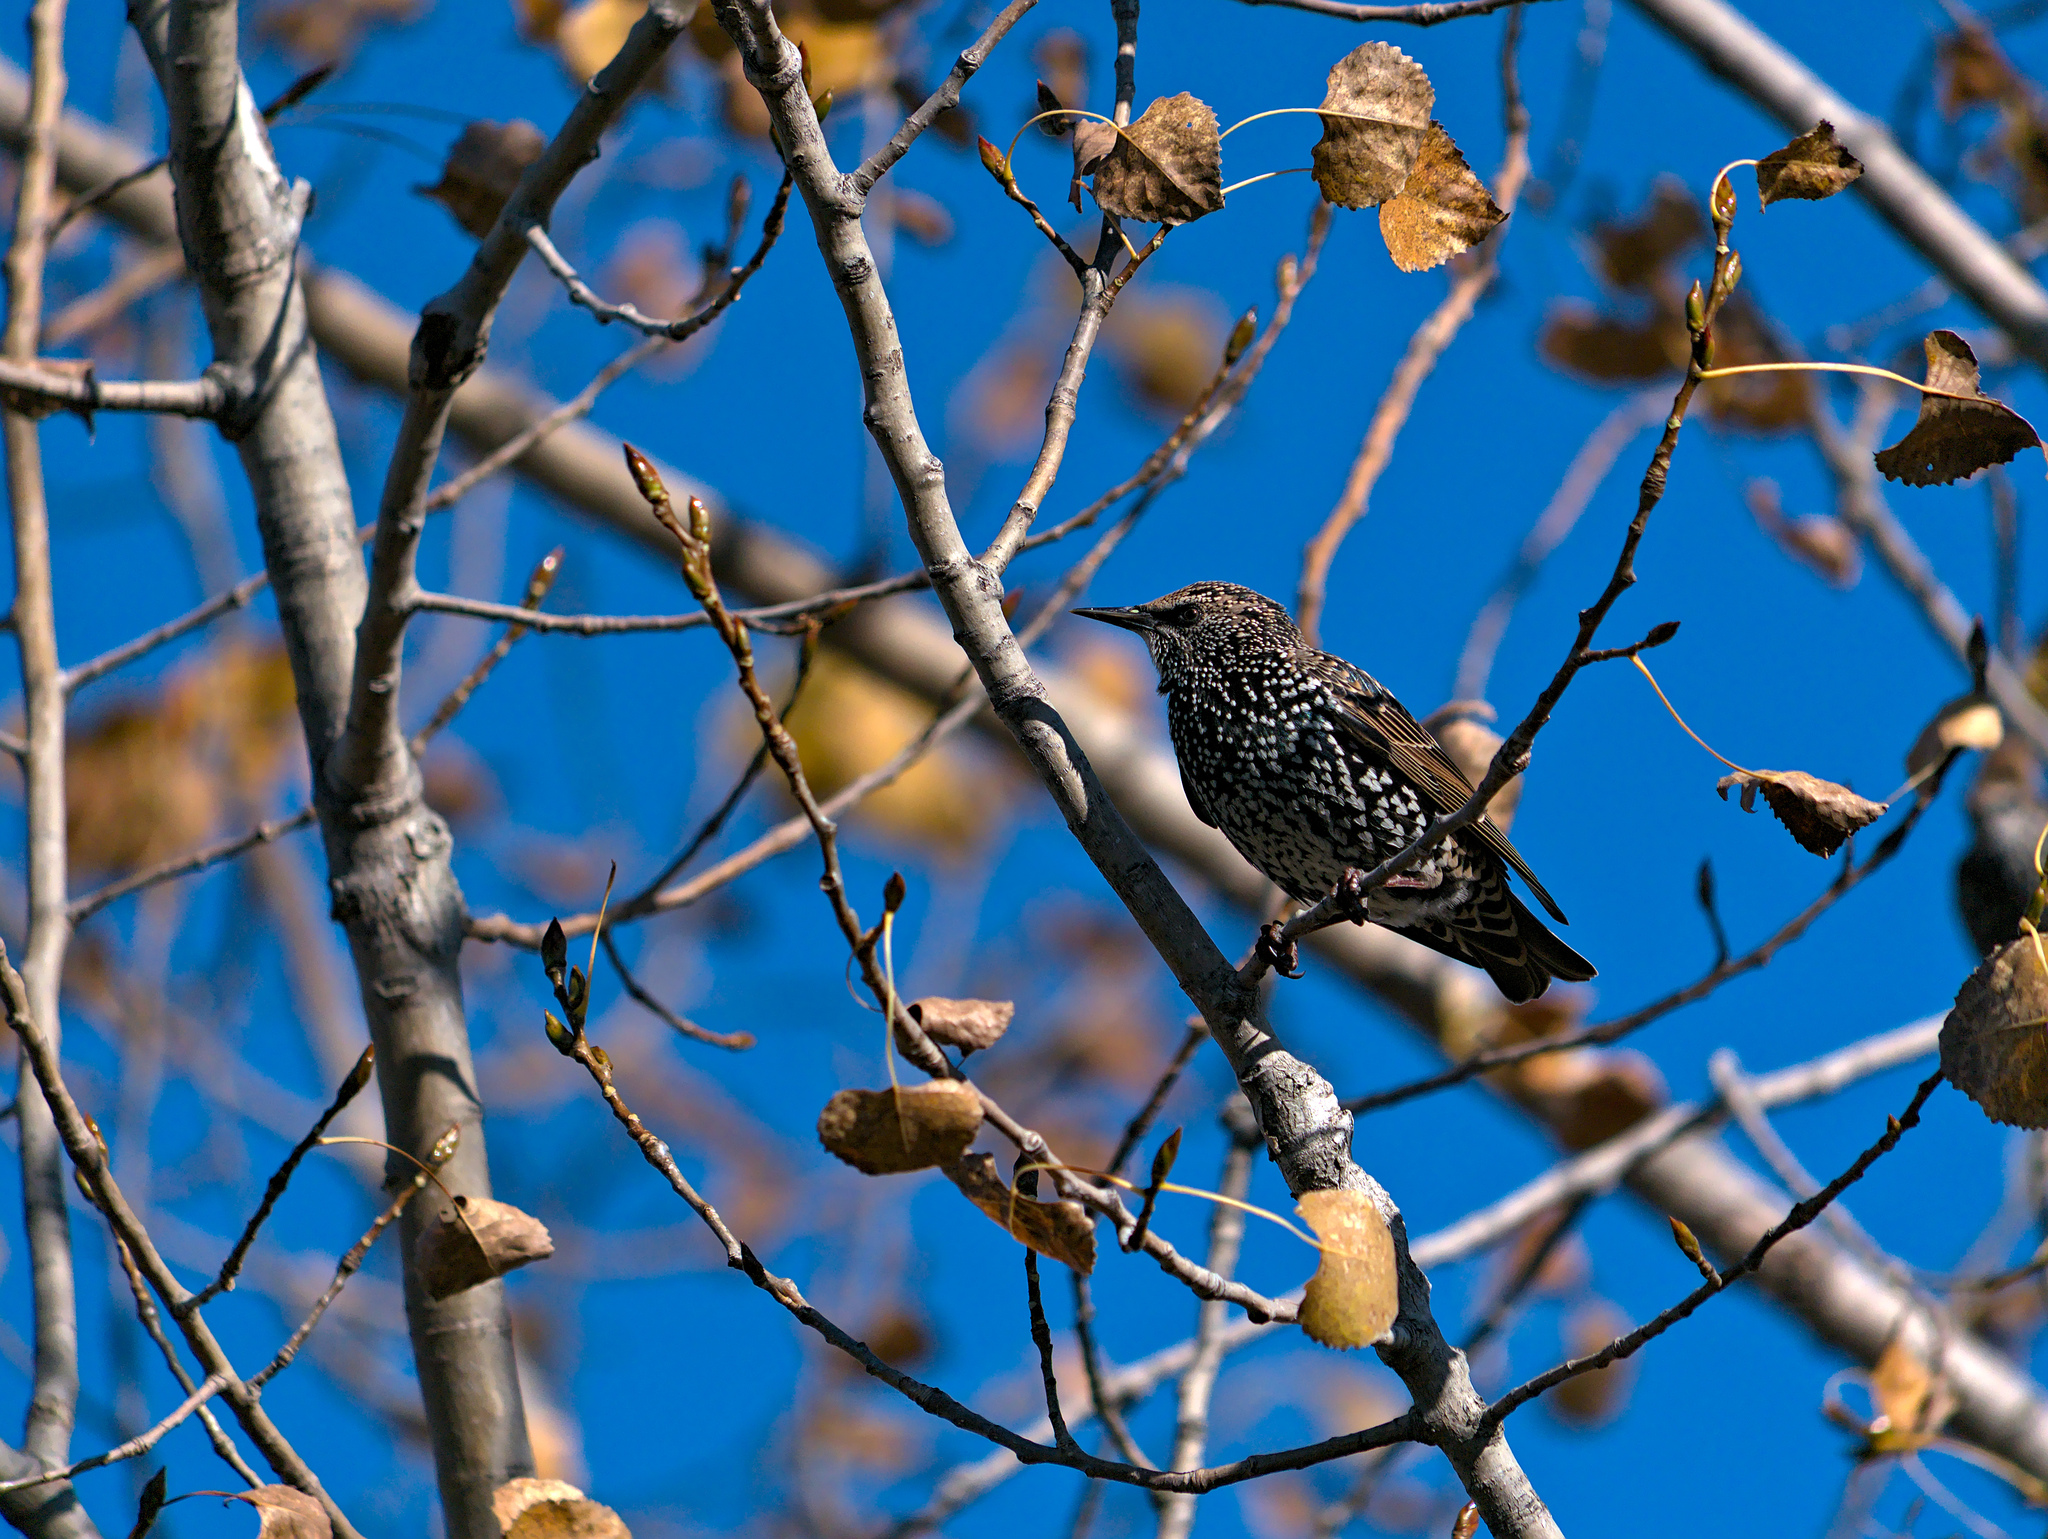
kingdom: Animalia
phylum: Chordata
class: Aves
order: Passeriformes
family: Sturnidae
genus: Sturnus
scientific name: Sturnus vulgaris
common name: Common starling
